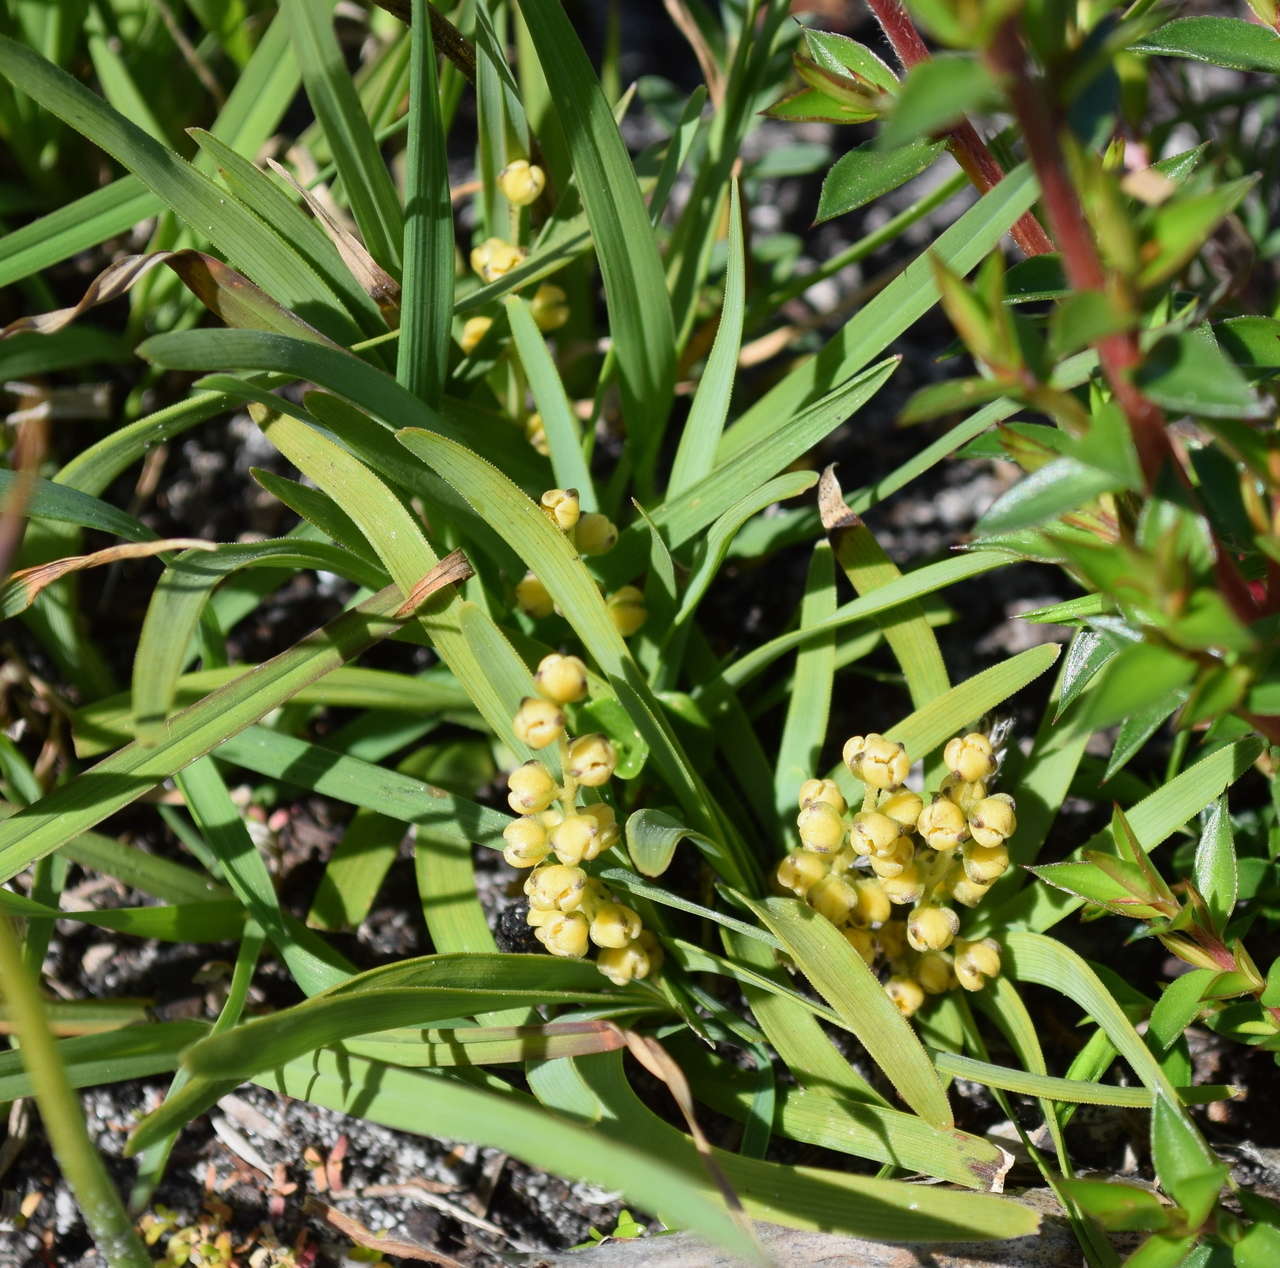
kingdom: Plantae
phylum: Tracheophyta
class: Liliopsida
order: Asparagales
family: Asparagaceae
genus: Lomandra
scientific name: Lomandra nana
